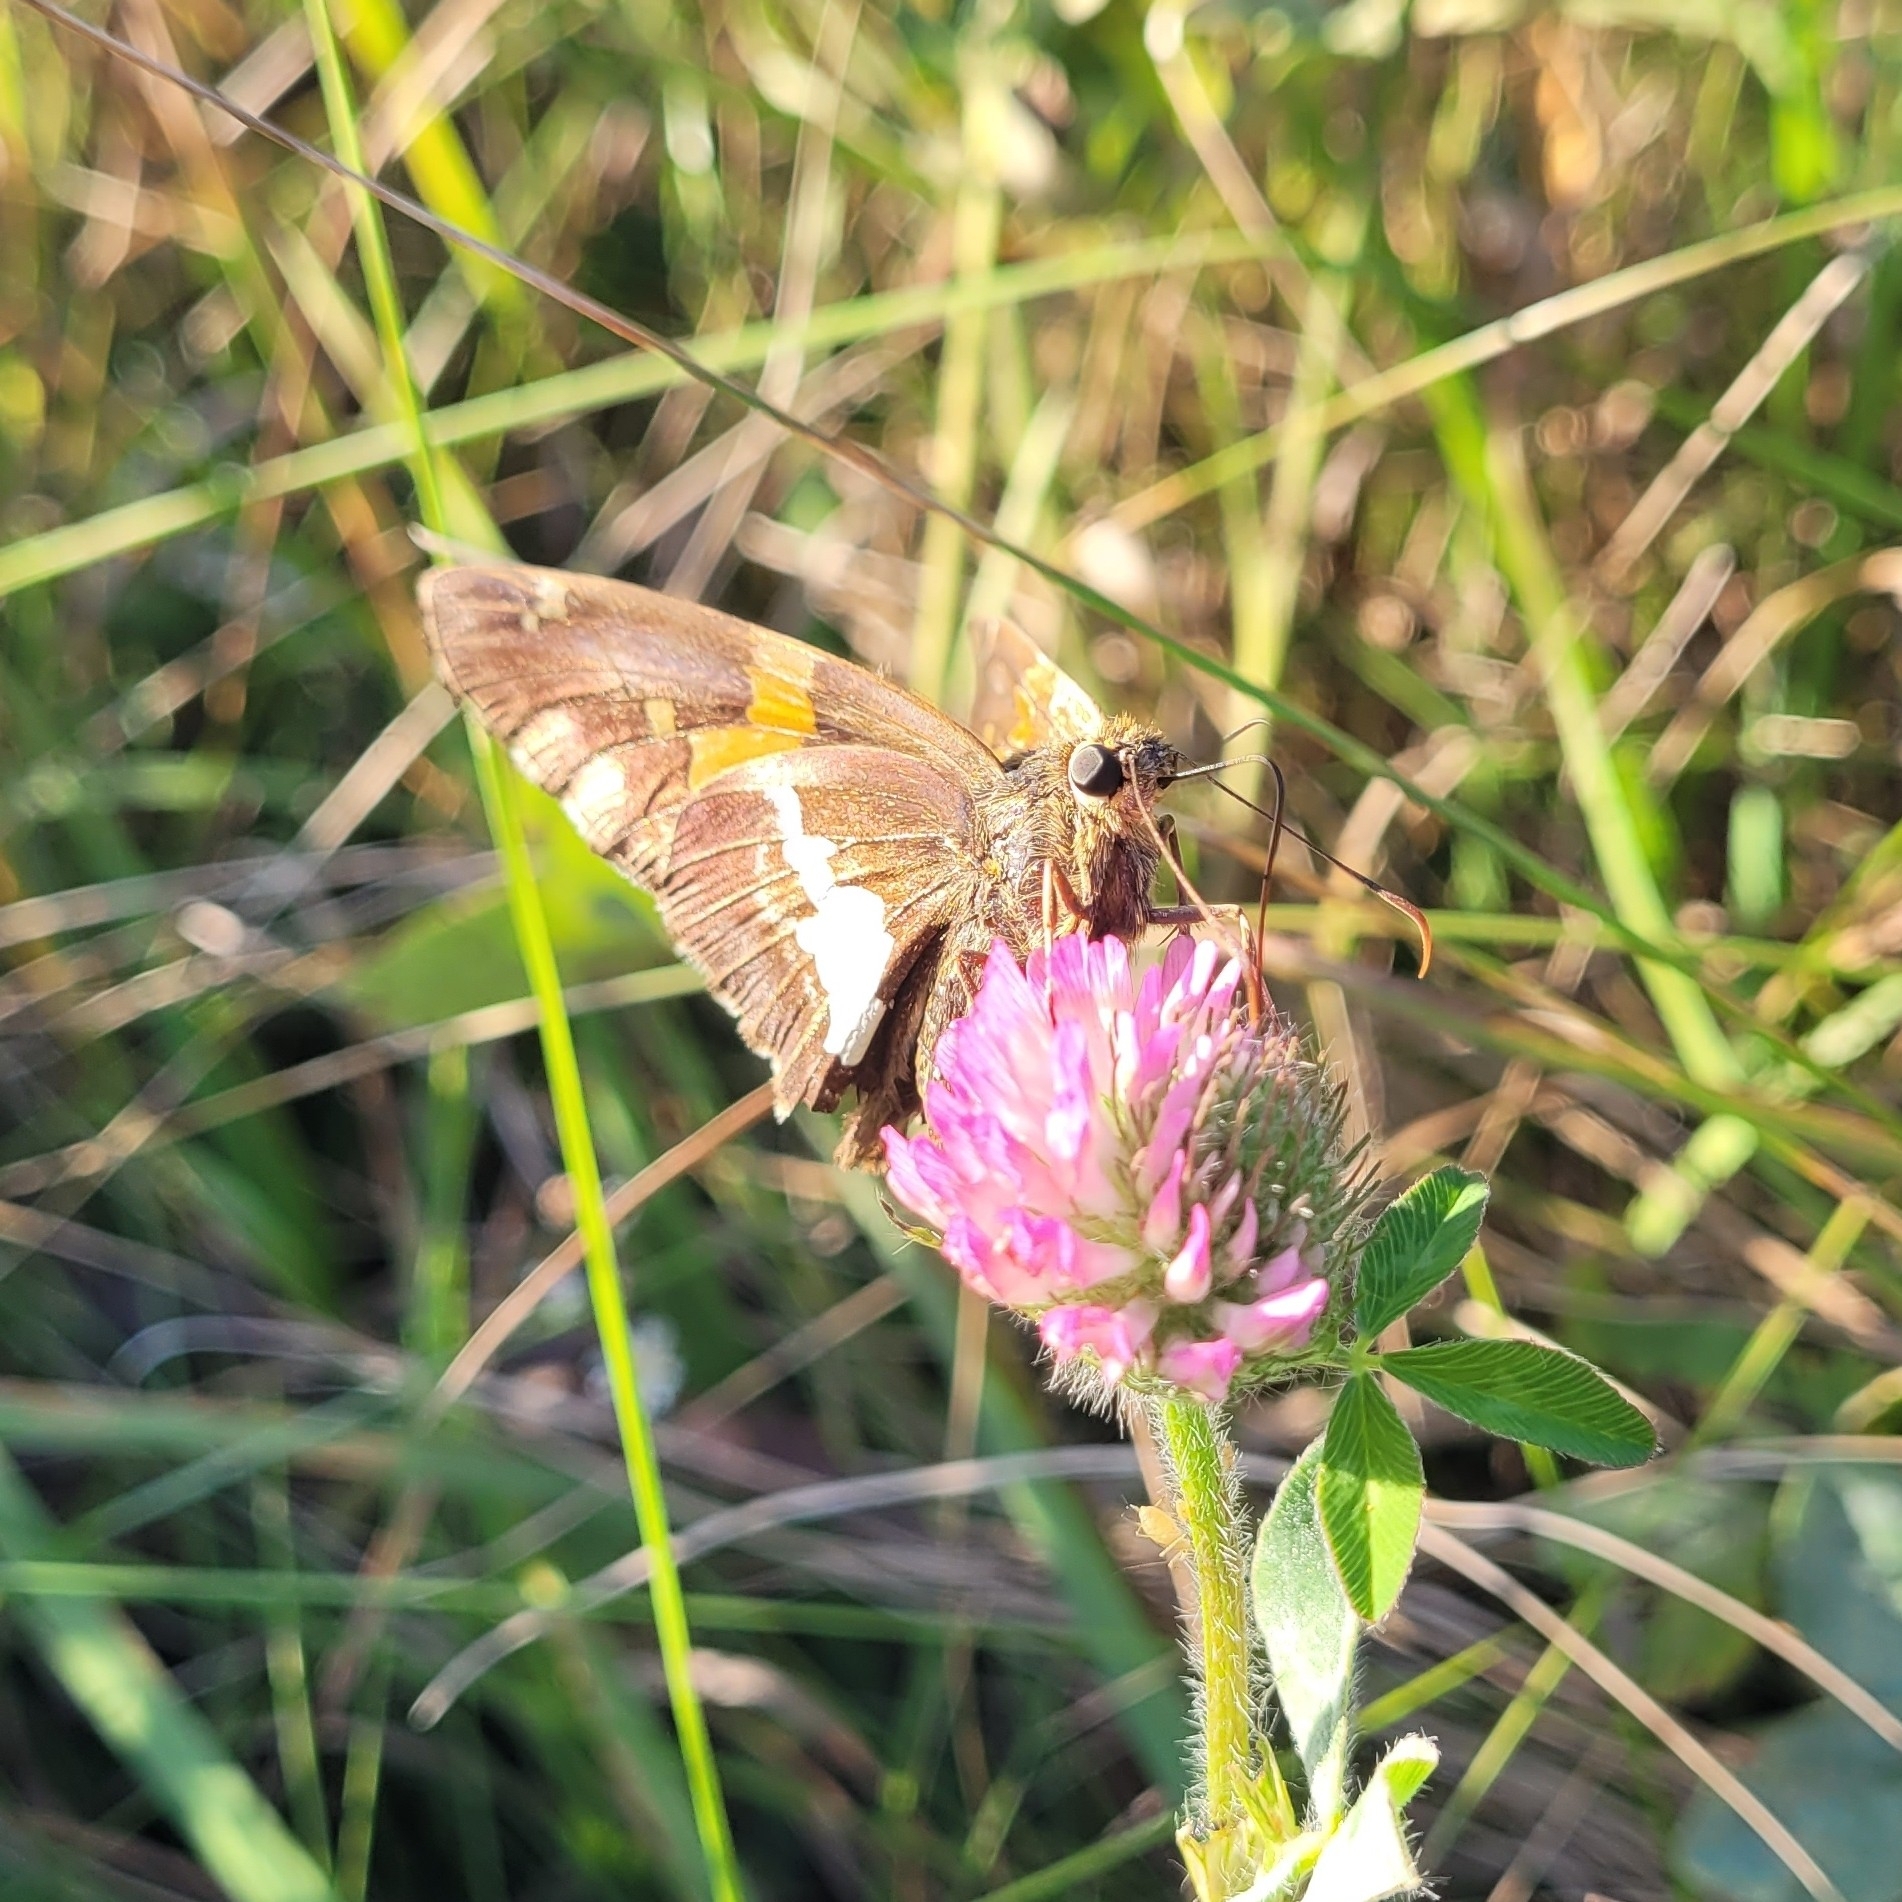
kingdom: Animalia
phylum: Arthropoda
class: Insecta
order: Lepidoptera
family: Hesperiidae
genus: Epargyreus
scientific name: Epargyreus clarus
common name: Silver-spotted skipper
